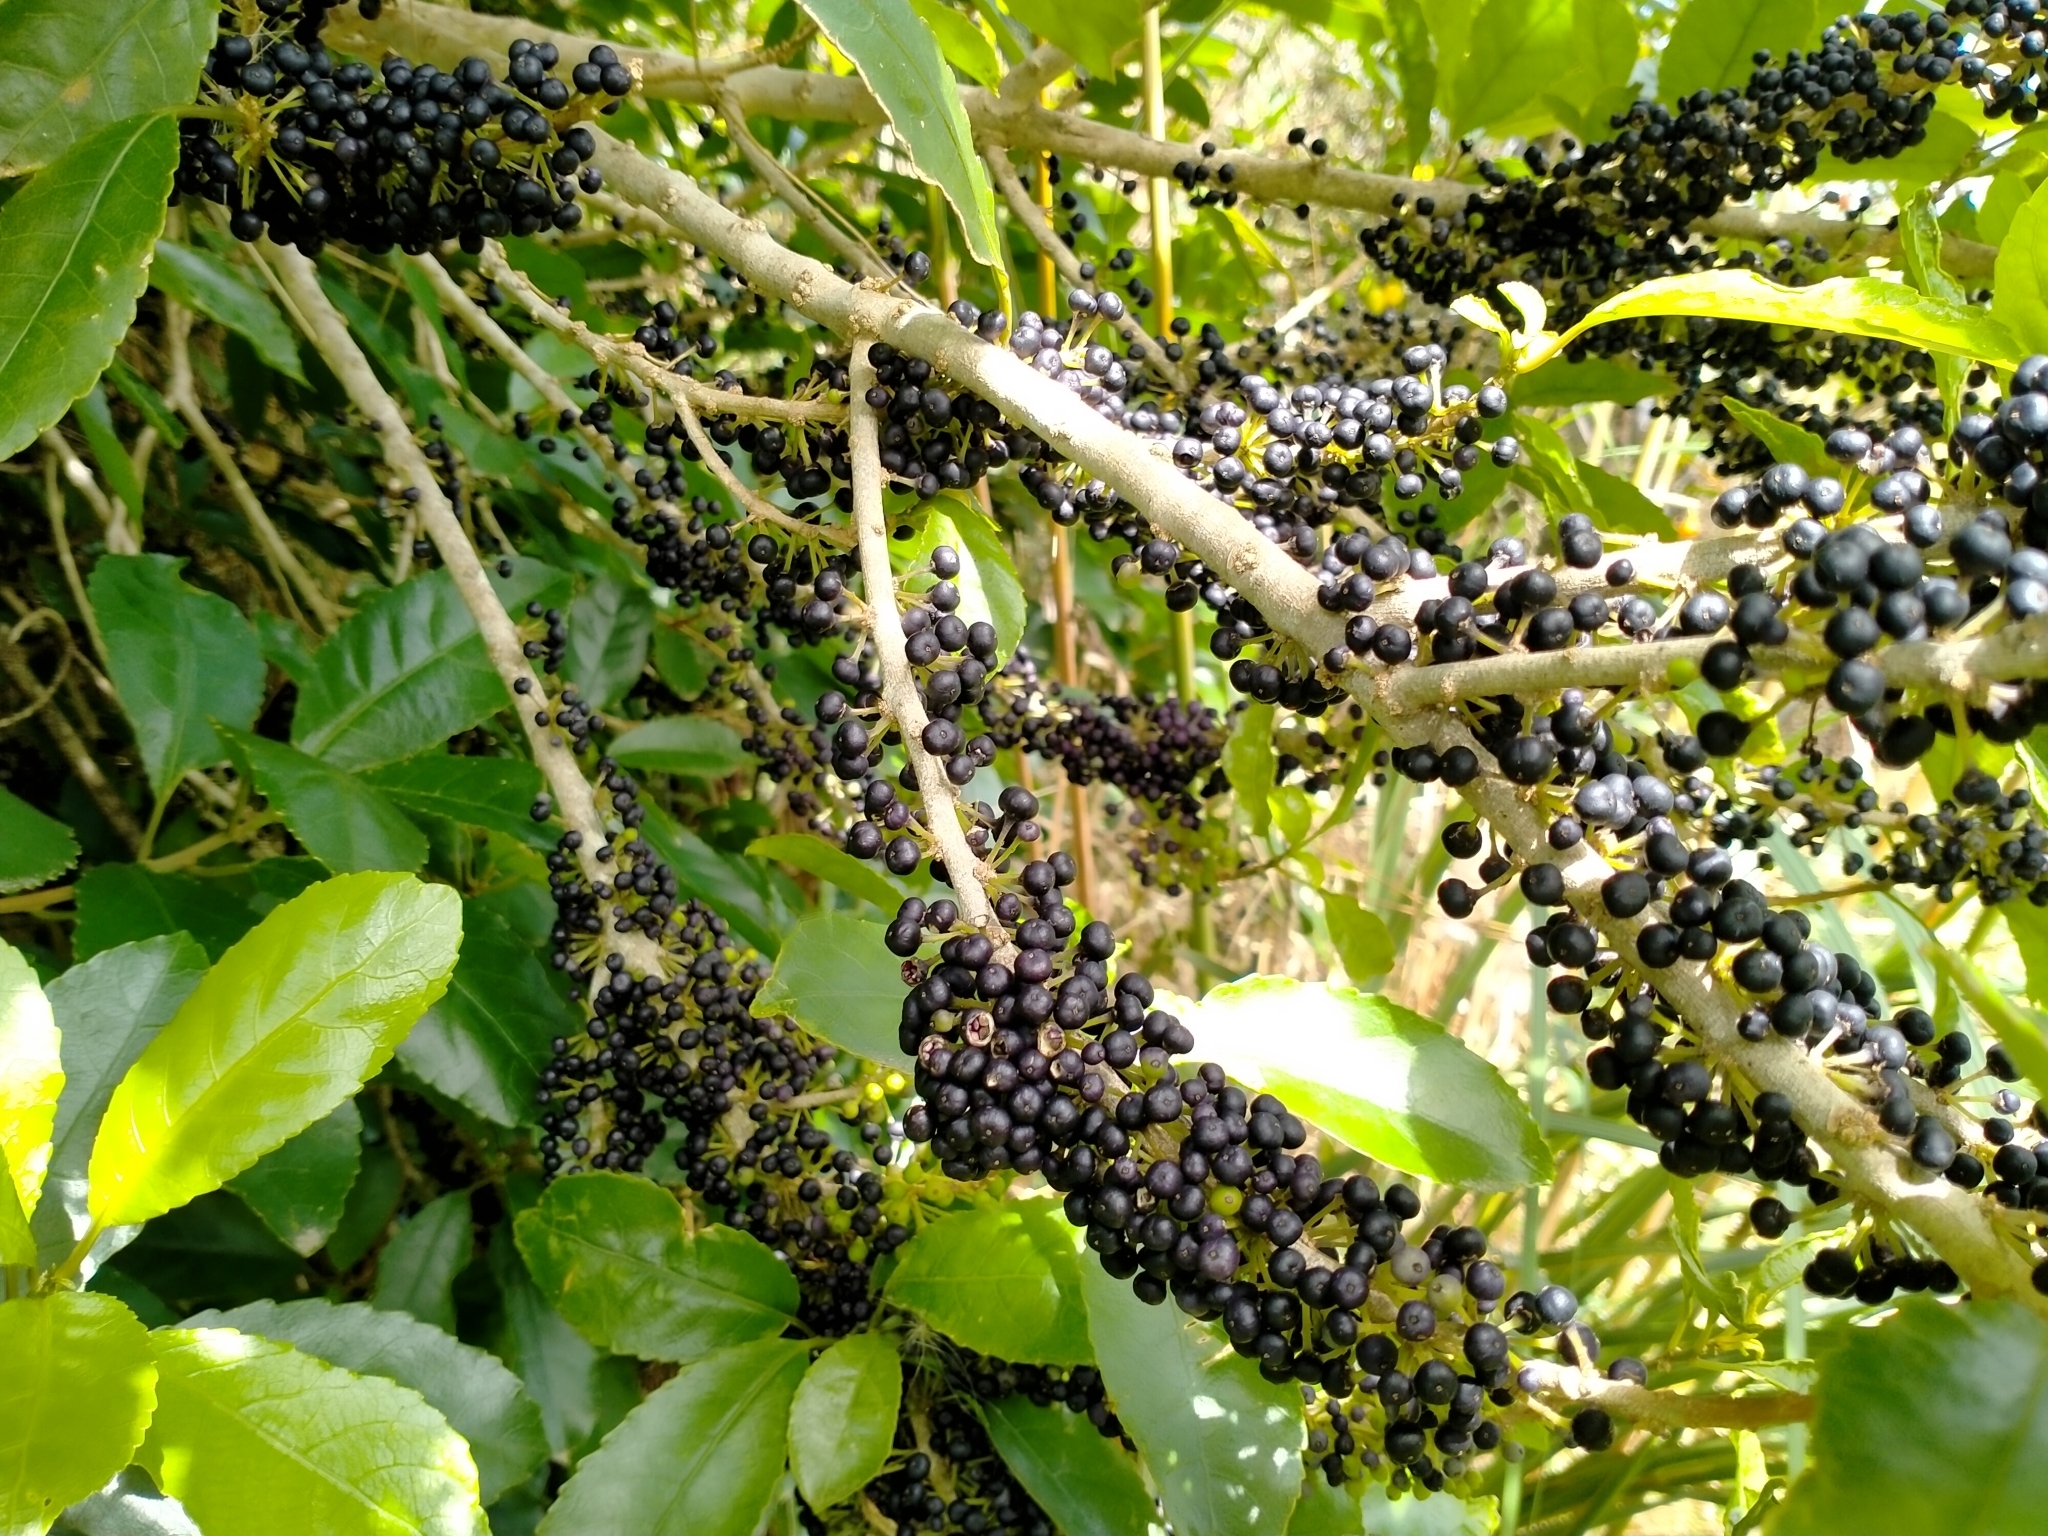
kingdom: Plantae
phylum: Tracheophyta
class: Magnoliopsida
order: Malpighiales
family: Violaceae
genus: Melicytus
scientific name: Melicytus ramiflorus
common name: Mahoe
